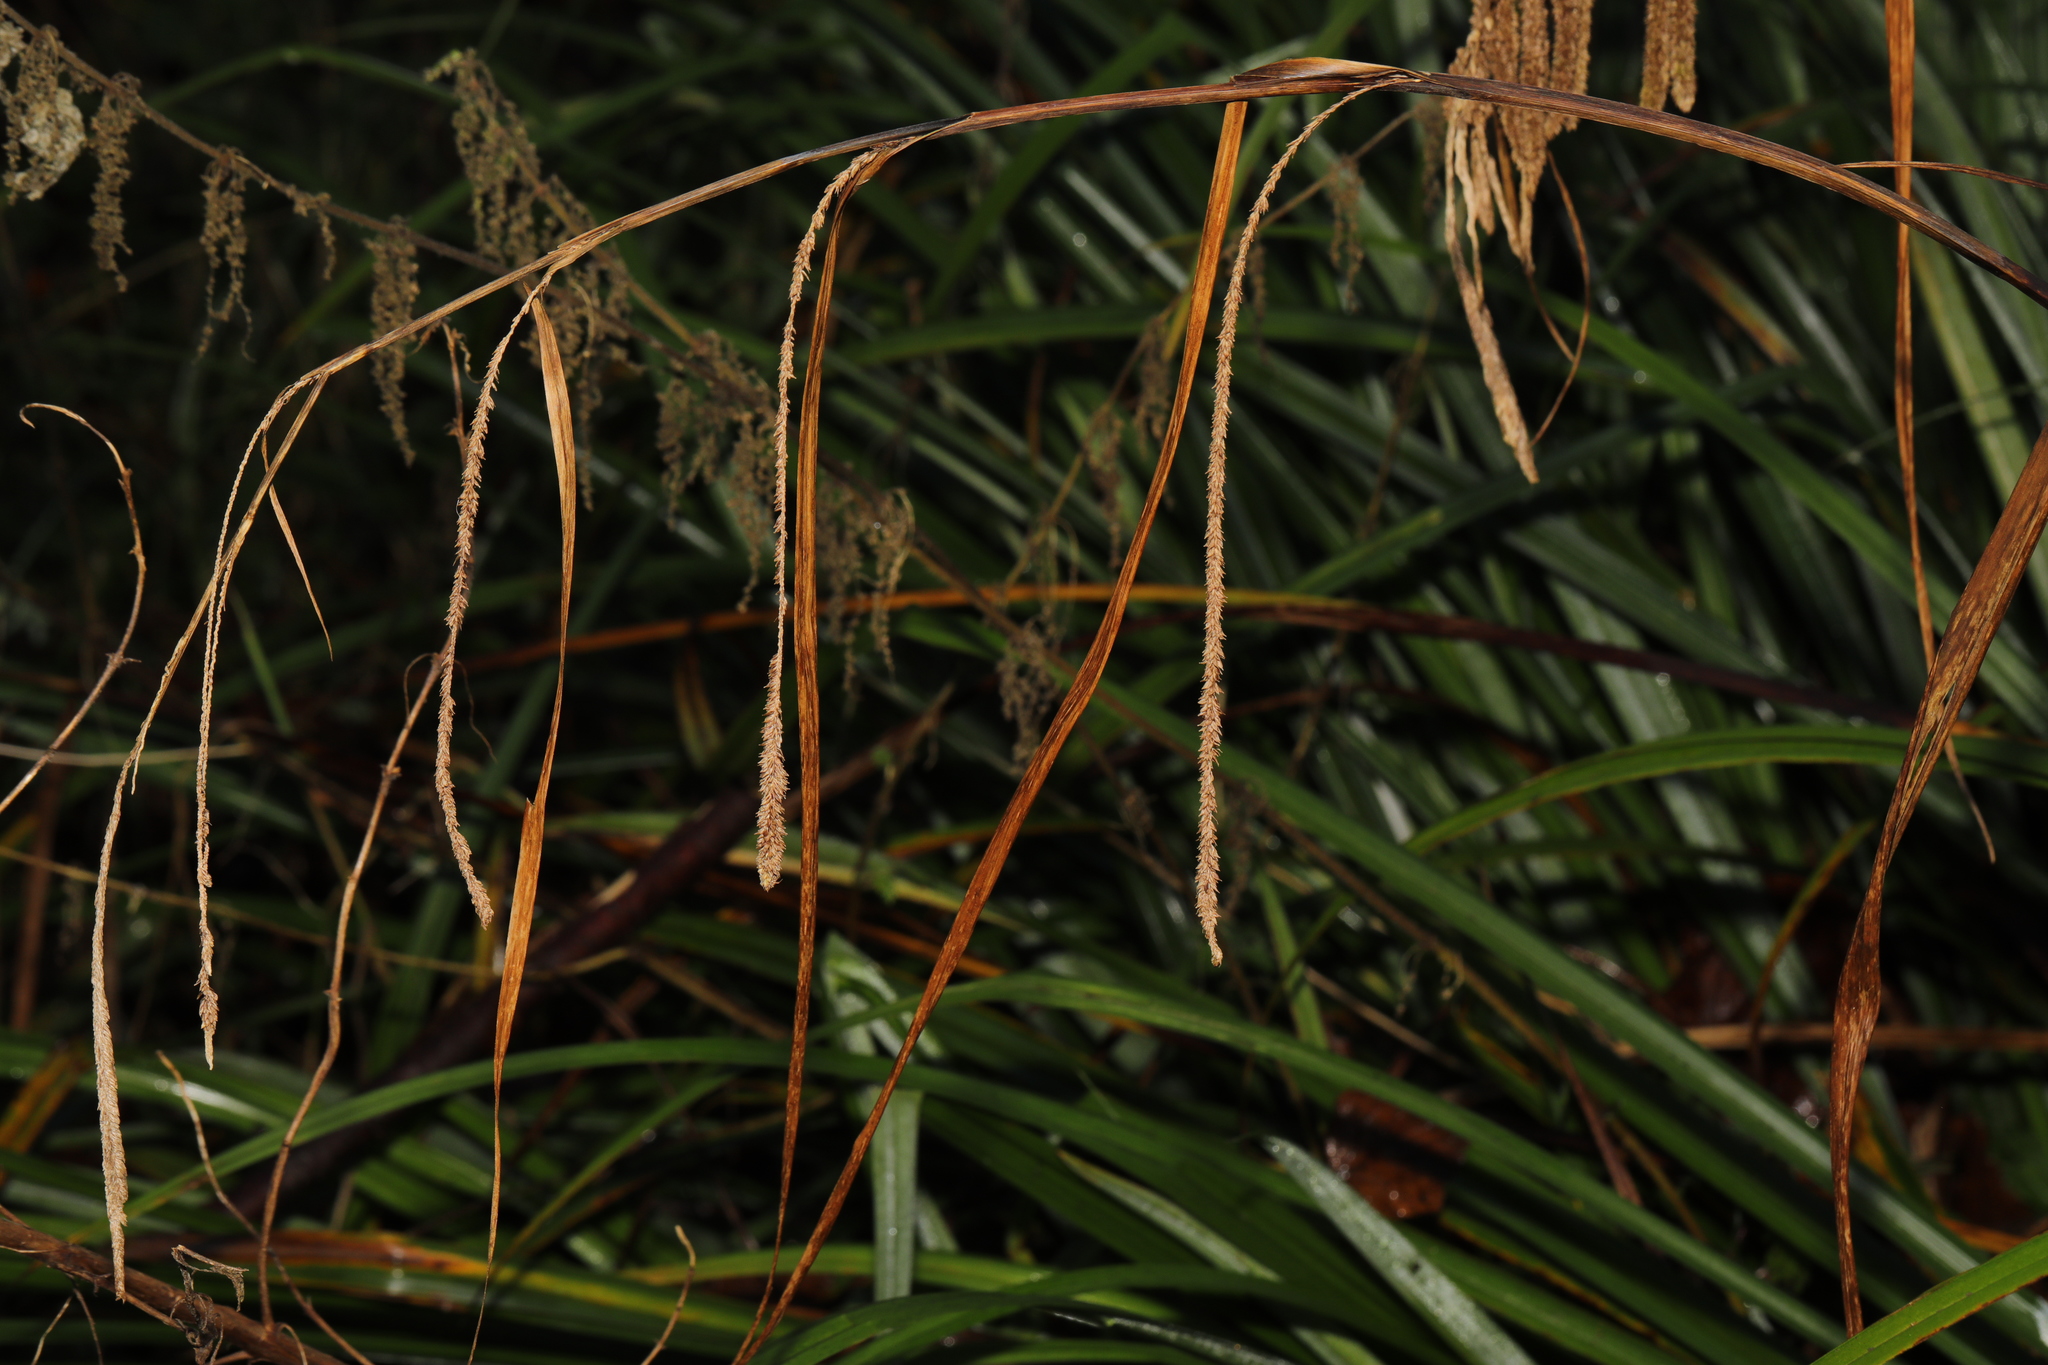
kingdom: Plantae
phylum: Tracheophyta
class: Liliopsida
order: Poales
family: Cyperaceae
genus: Carex
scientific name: Carex pendula
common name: Pendulous sedge
